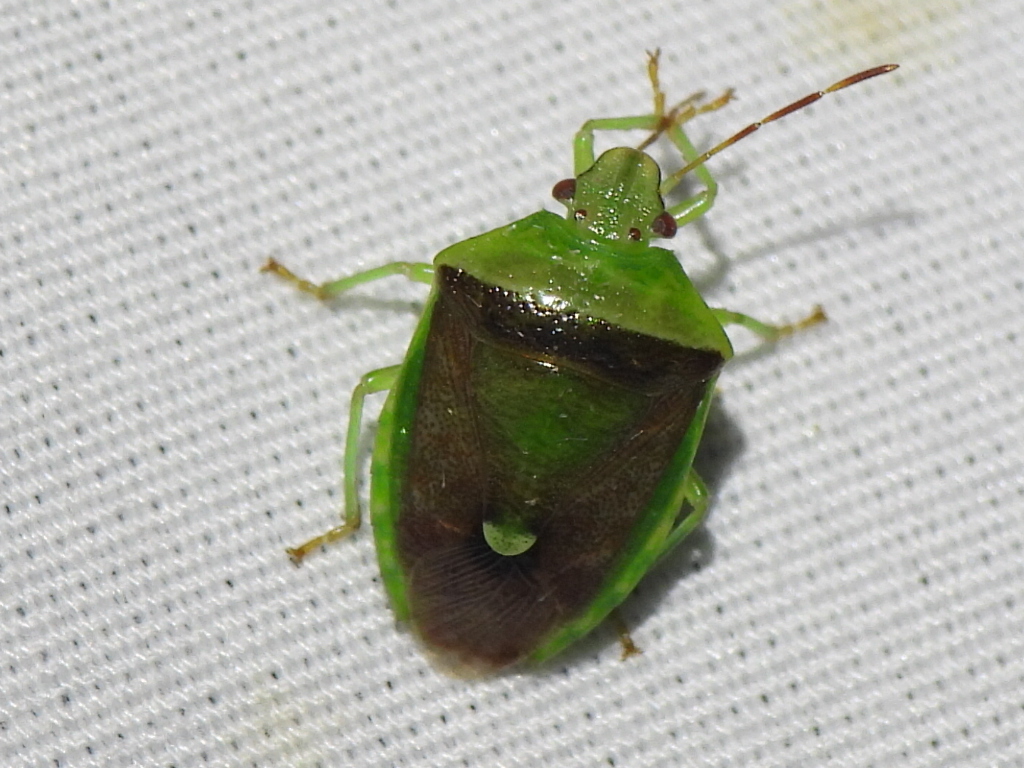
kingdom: Animalia
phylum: Arthropoda
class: Insecta
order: Hemiptera
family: Pentatomidae
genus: Banasa
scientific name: Banasa dimidiata
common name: Green burgundy stink bug
